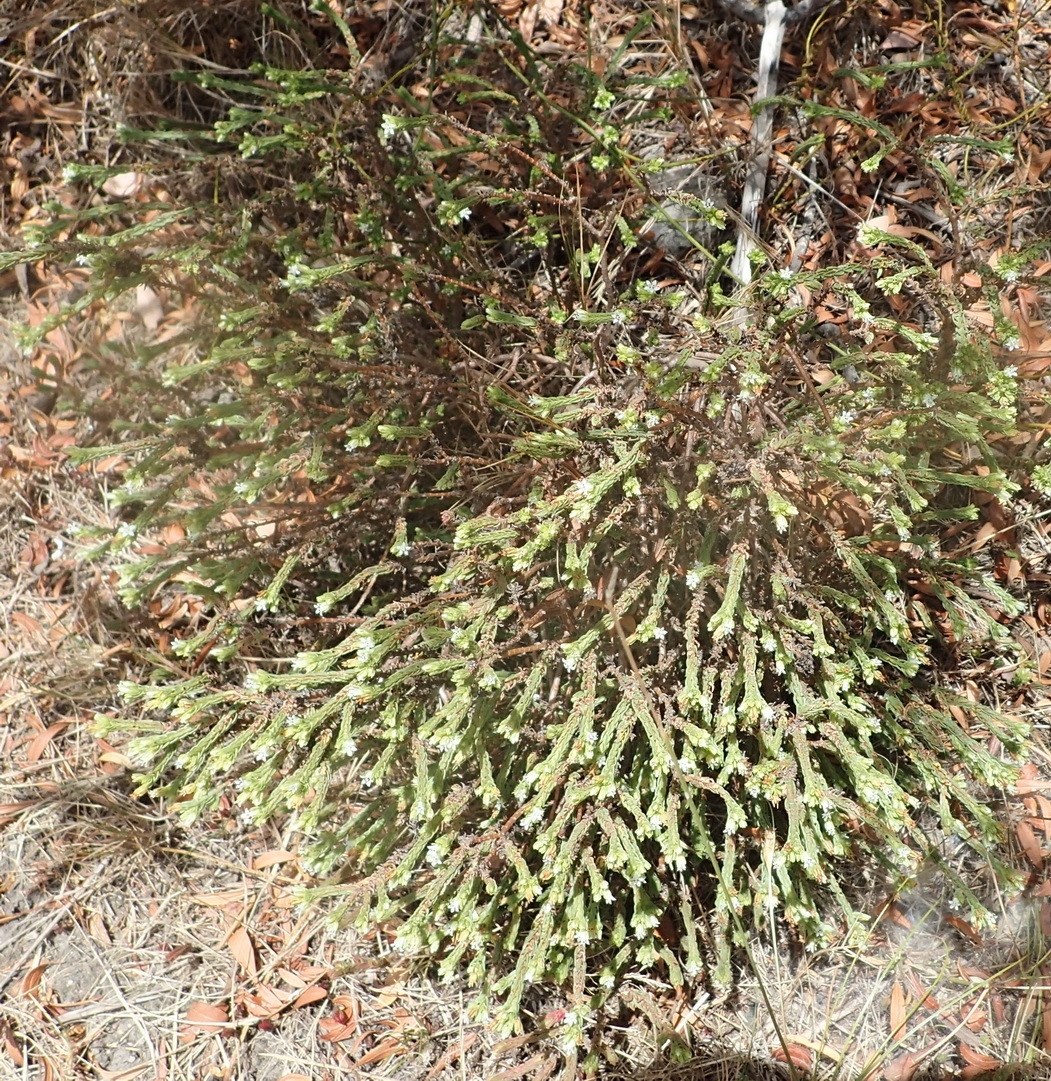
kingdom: Plantae
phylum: Tracheophyta
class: Magnoliopsida
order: Saxifragales
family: Crassulaceae
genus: Crassula
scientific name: Crassula ericoides
